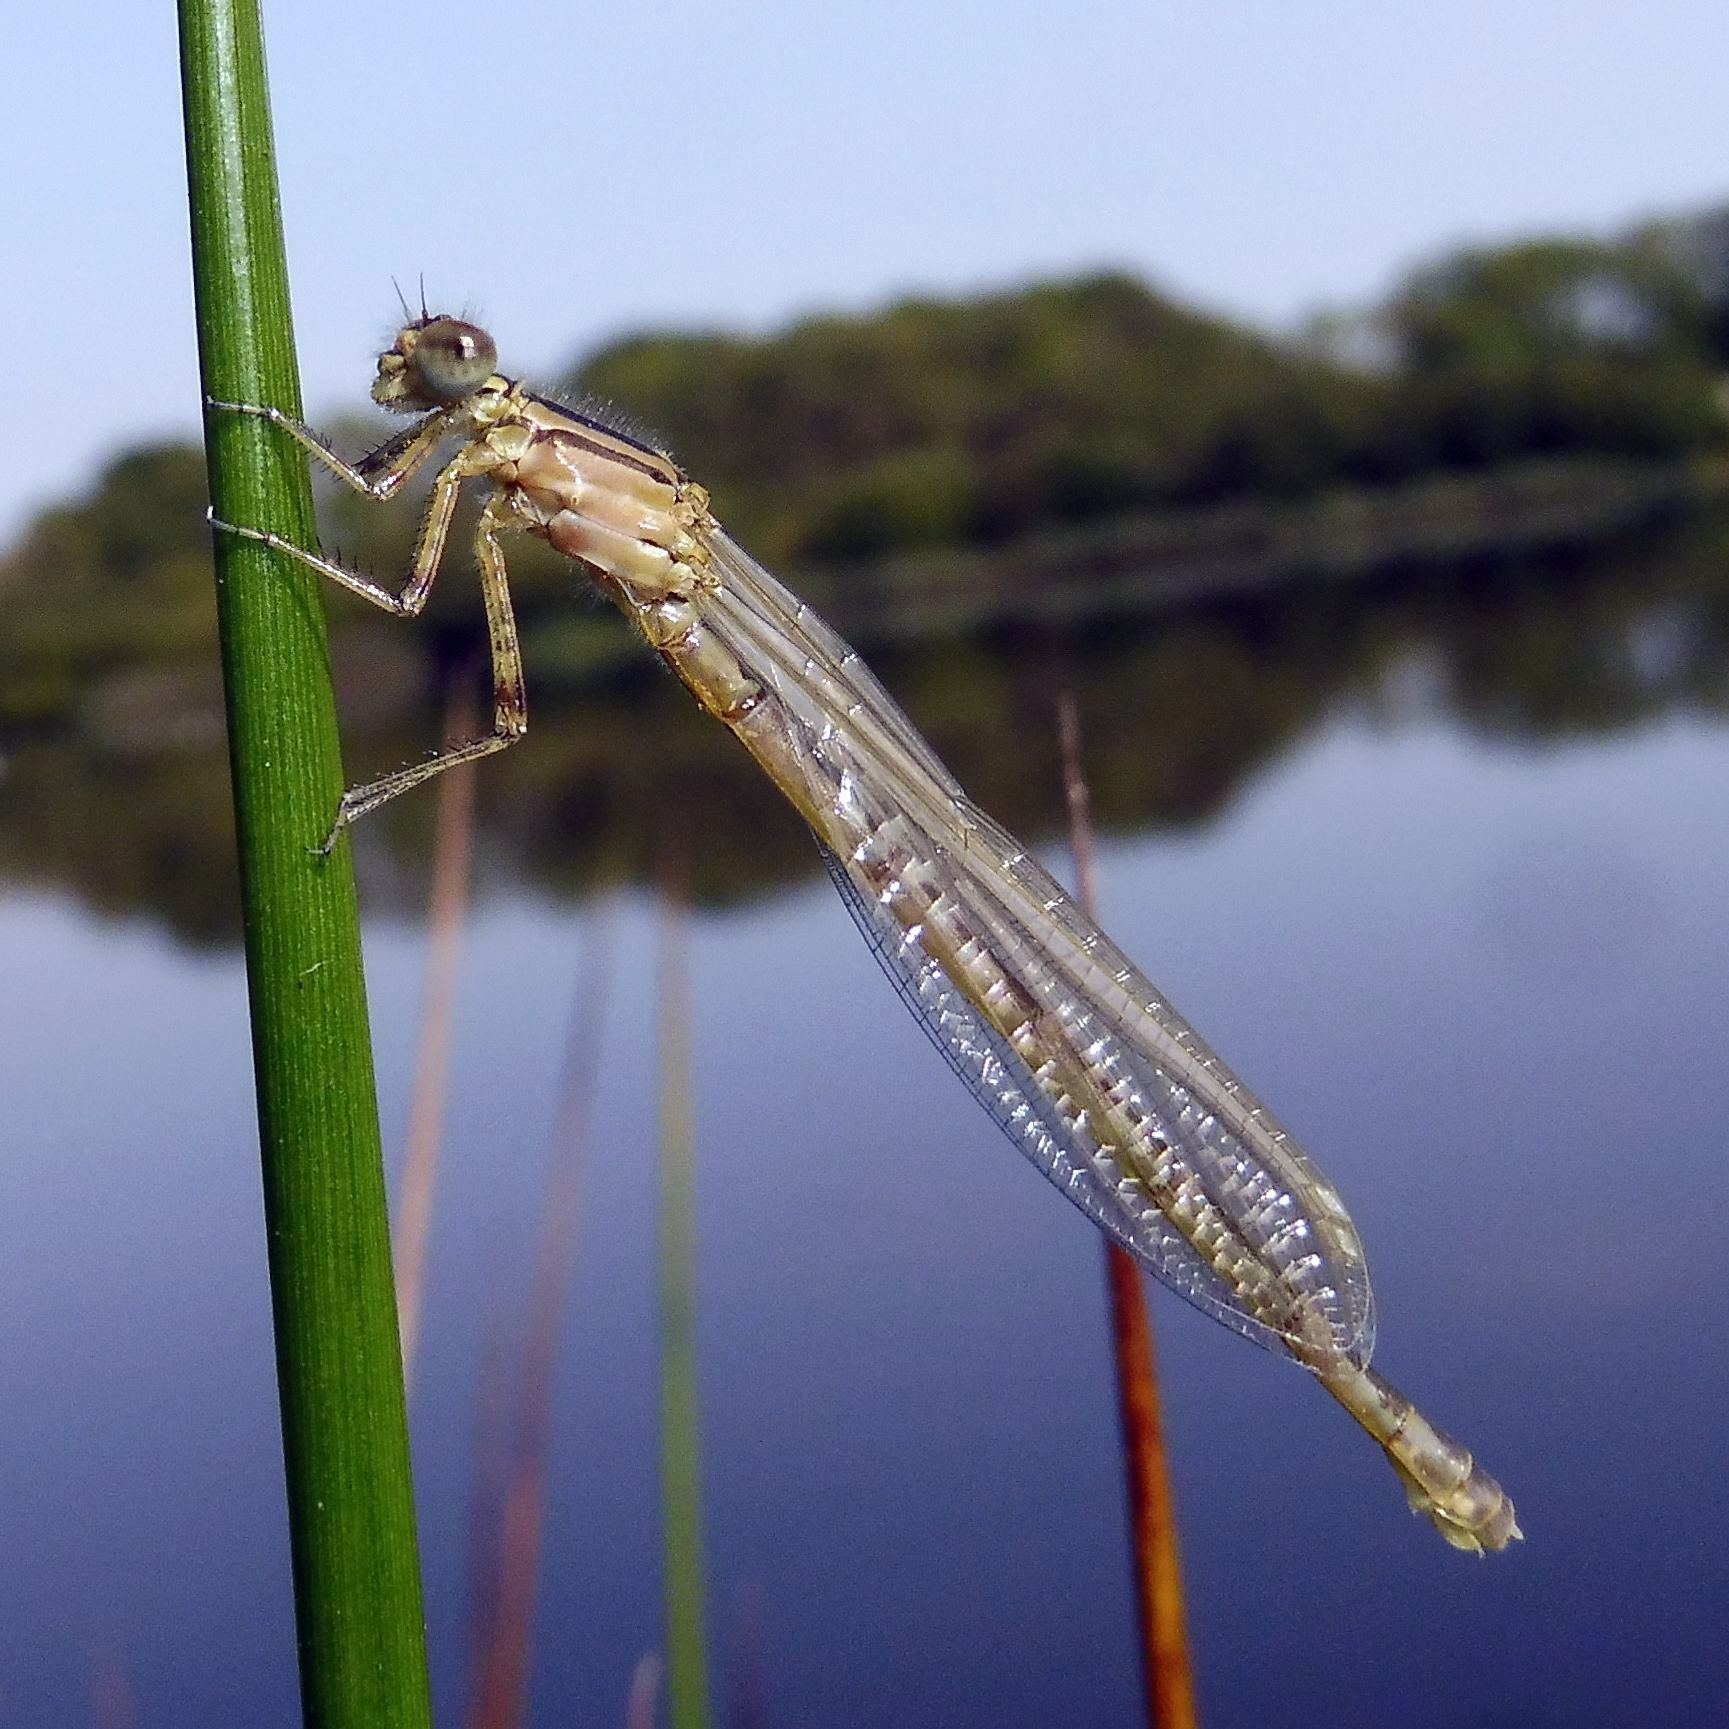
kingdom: Animalia
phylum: Arthropoda
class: Insecta
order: Odonata
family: Coenagrionidae
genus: Enallagma
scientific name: Enallagma cyathigerum
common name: Common blue damselfly
